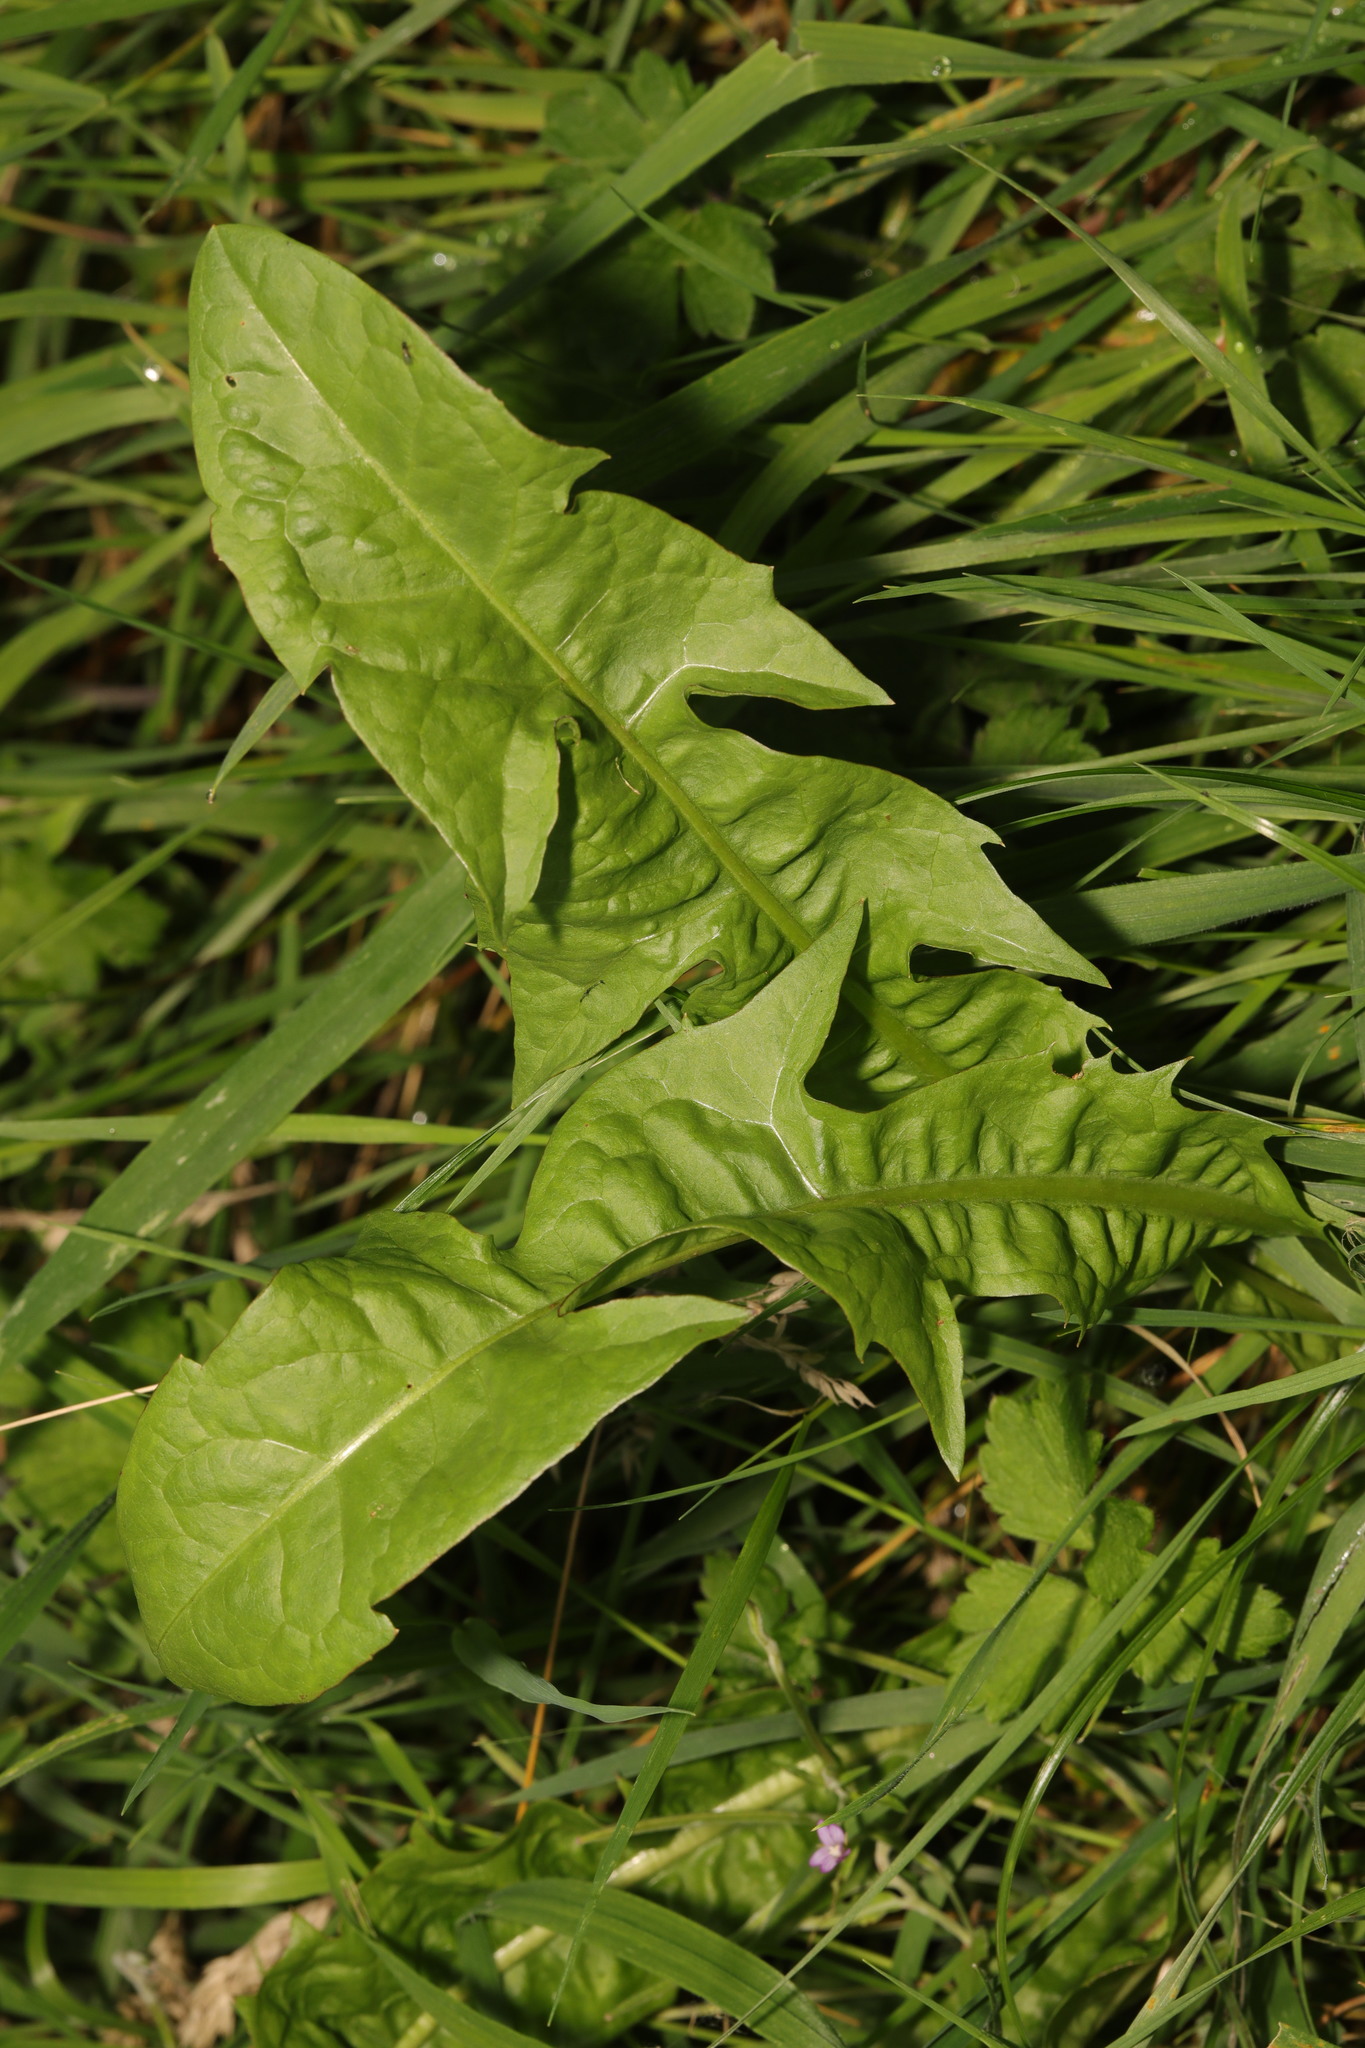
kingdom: Plantae
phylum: Tracheophyta
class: Magnoliopsida
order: Asterales
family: Asteraceae
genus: Taraxacum
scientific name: Taraxacum officinale
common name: Common dandelion
